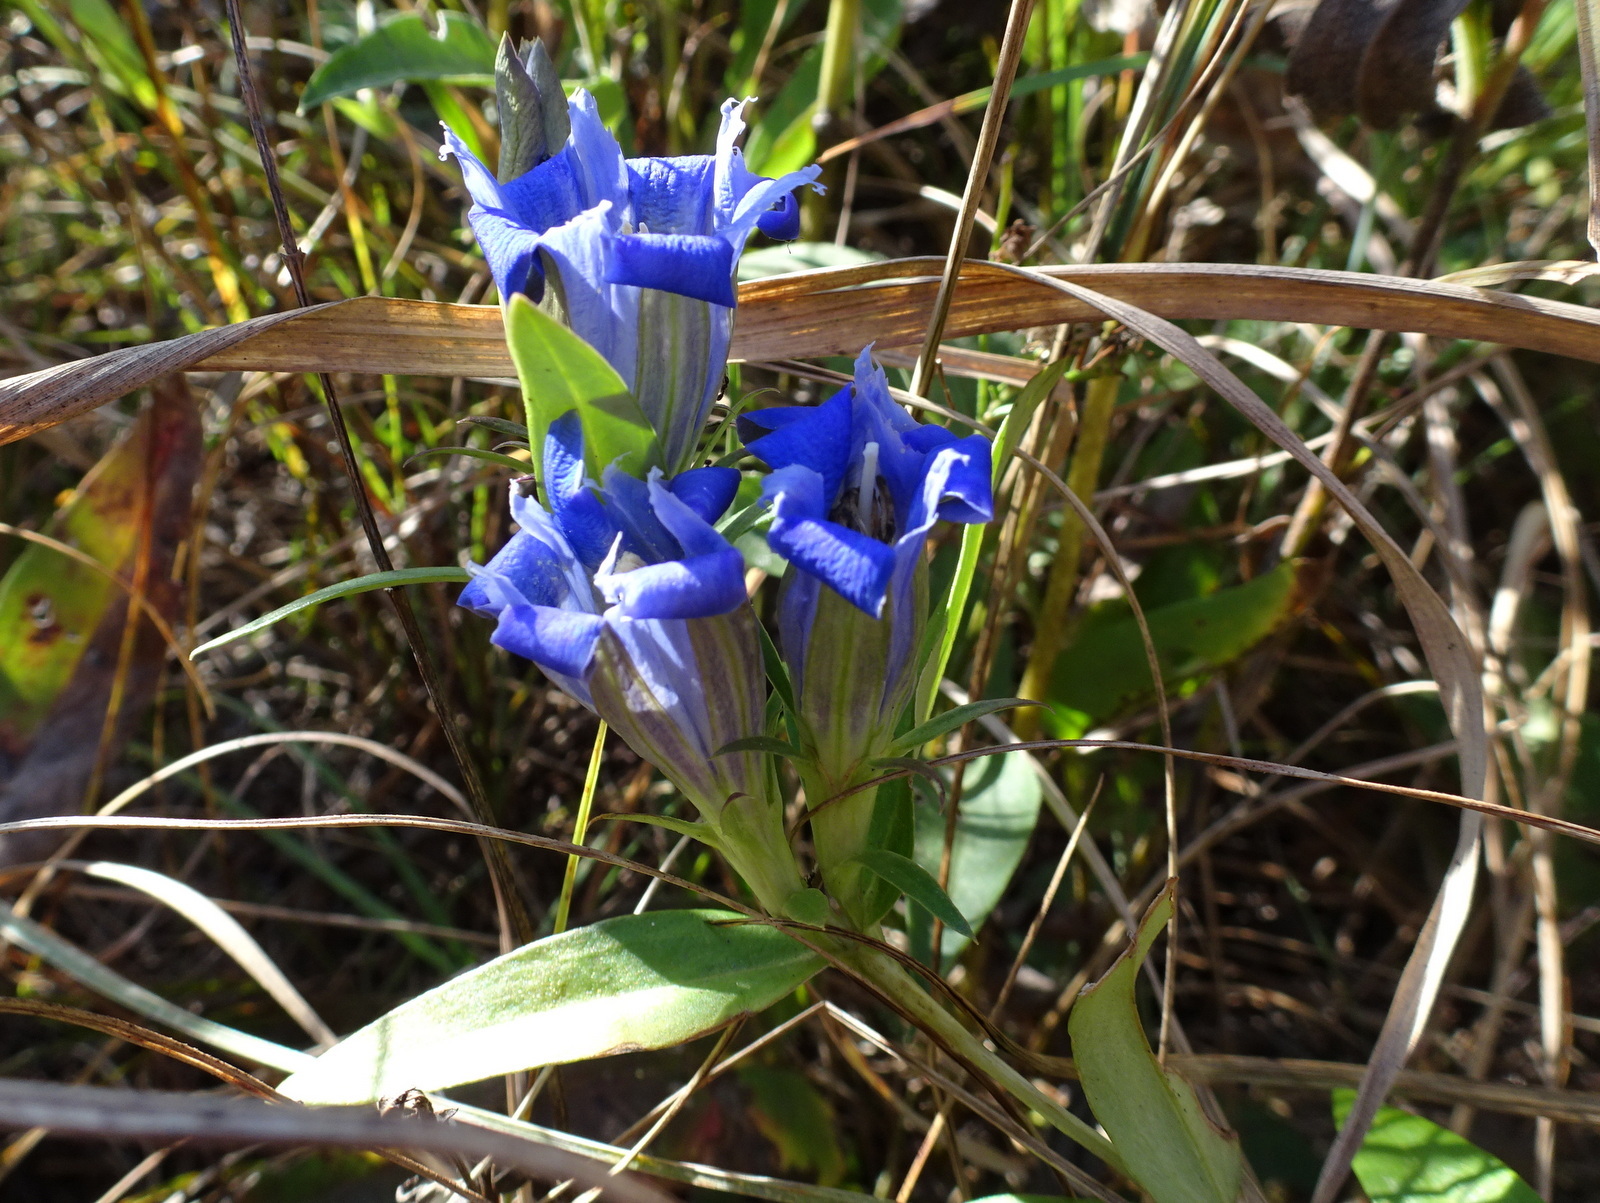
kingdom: Plantae
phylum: Tracheophyta
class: Magnoliopsida
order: Gentianales
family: Gentianaceae
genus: Gentiana
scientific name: Gentiana puberulenta
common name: Downy gentian
